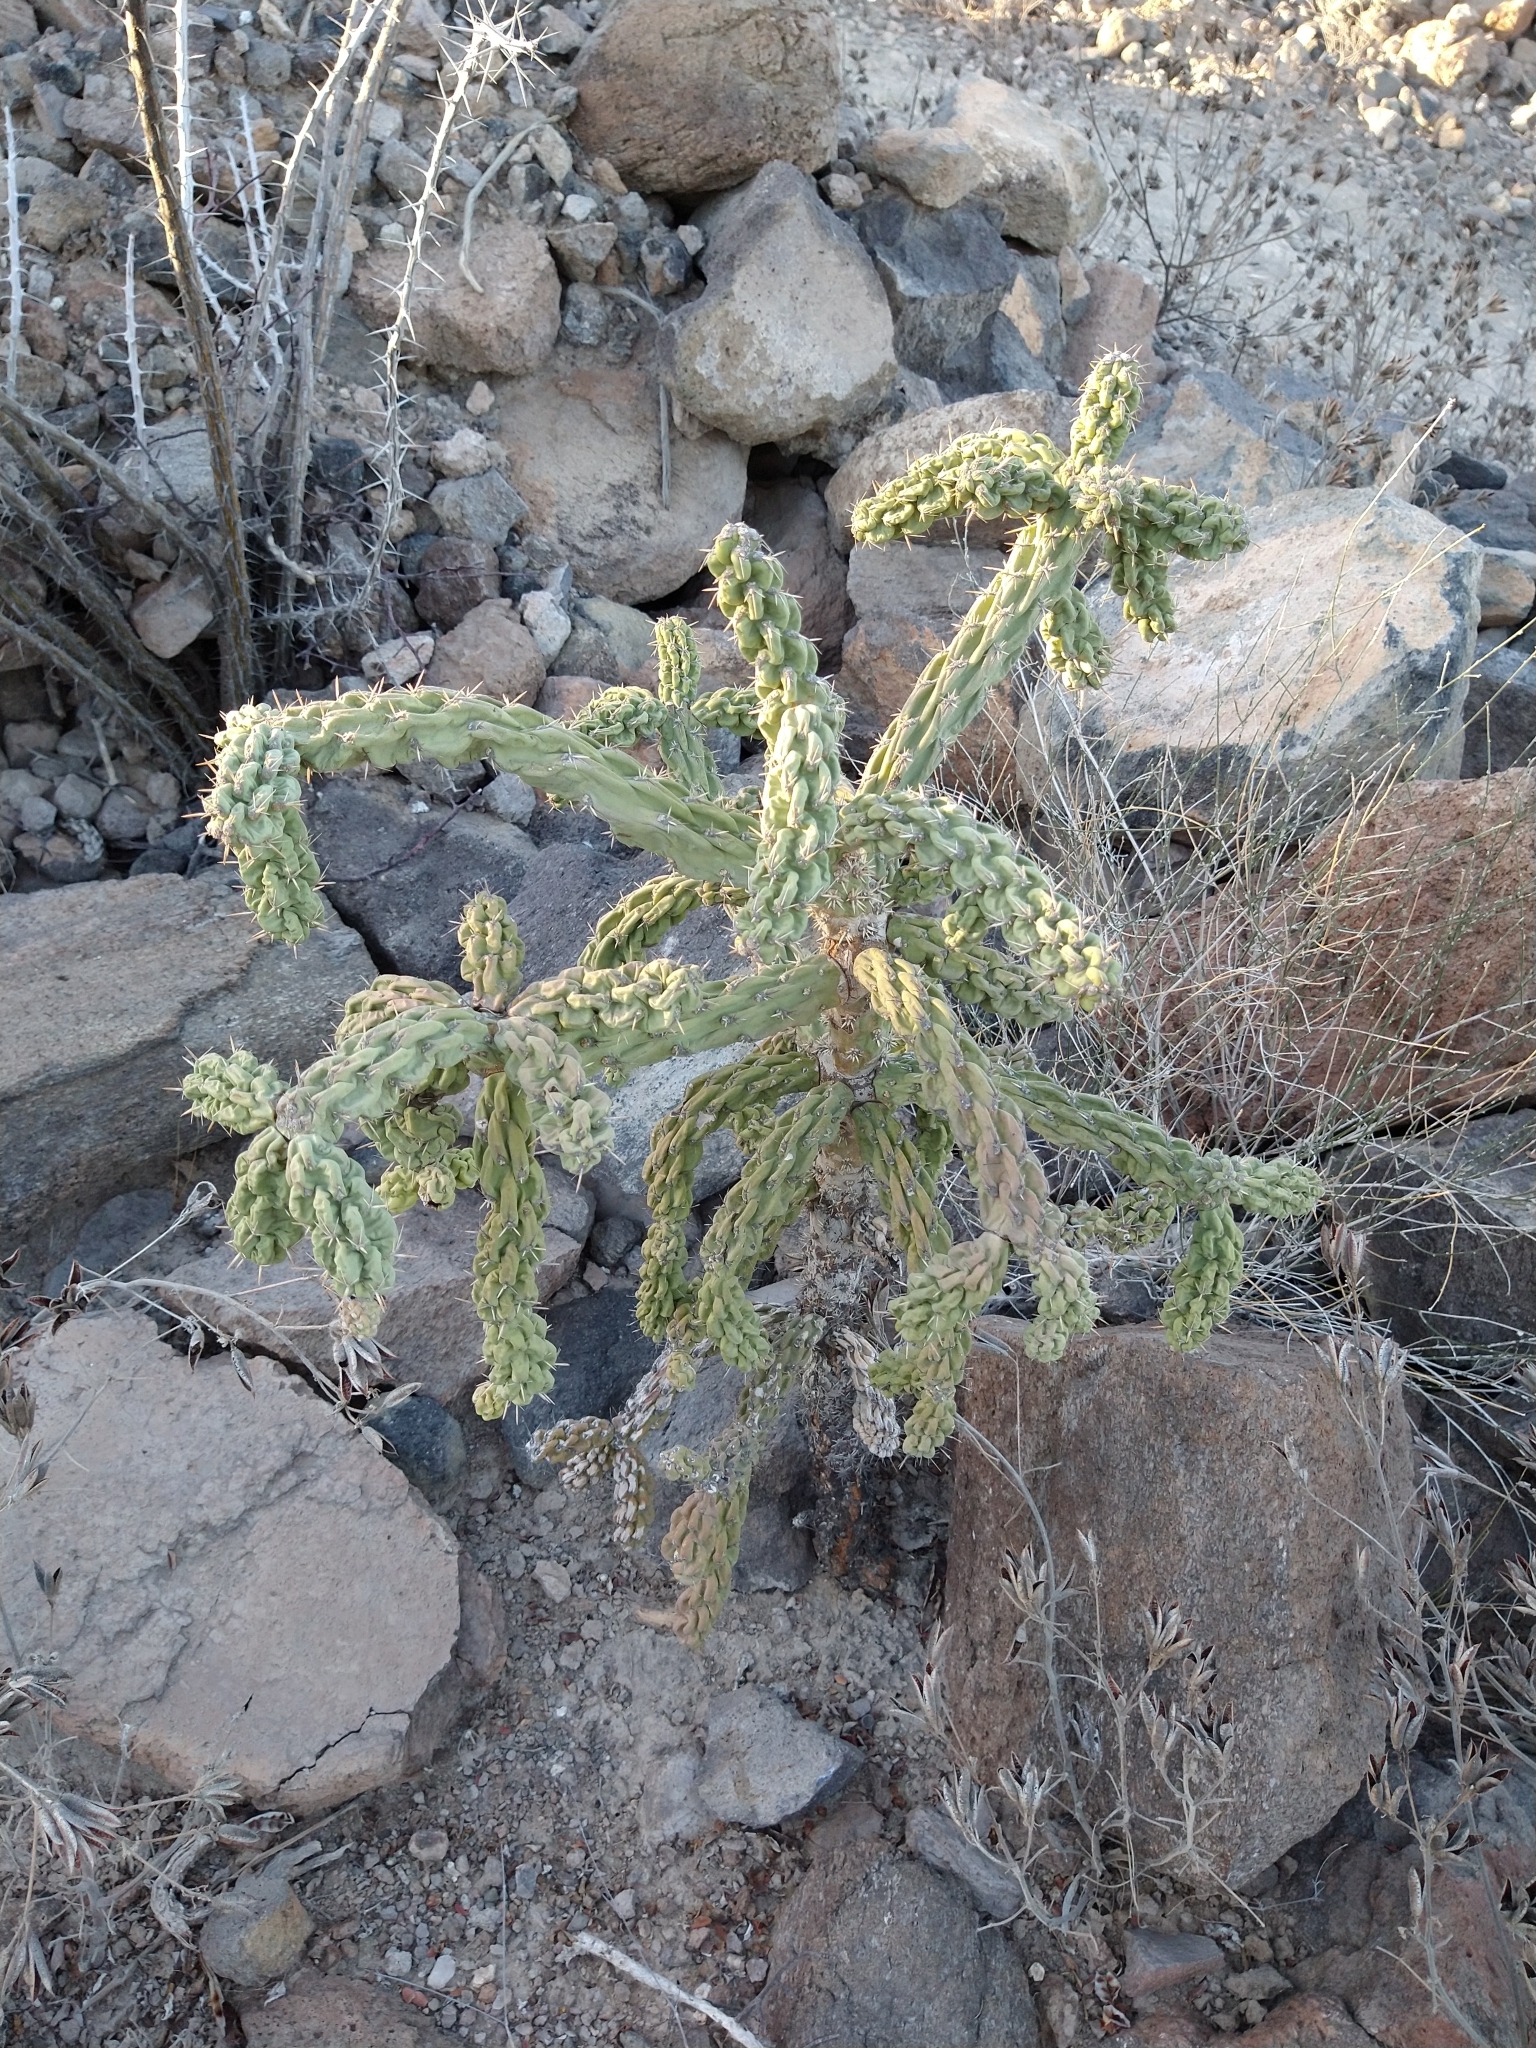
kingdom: Plantae
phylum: Tracheophyta
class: Magnoliopsida
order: Caryophyllales
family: Cactaceae
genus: Cylindropuntia
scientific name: Cylindropuntia cholla
